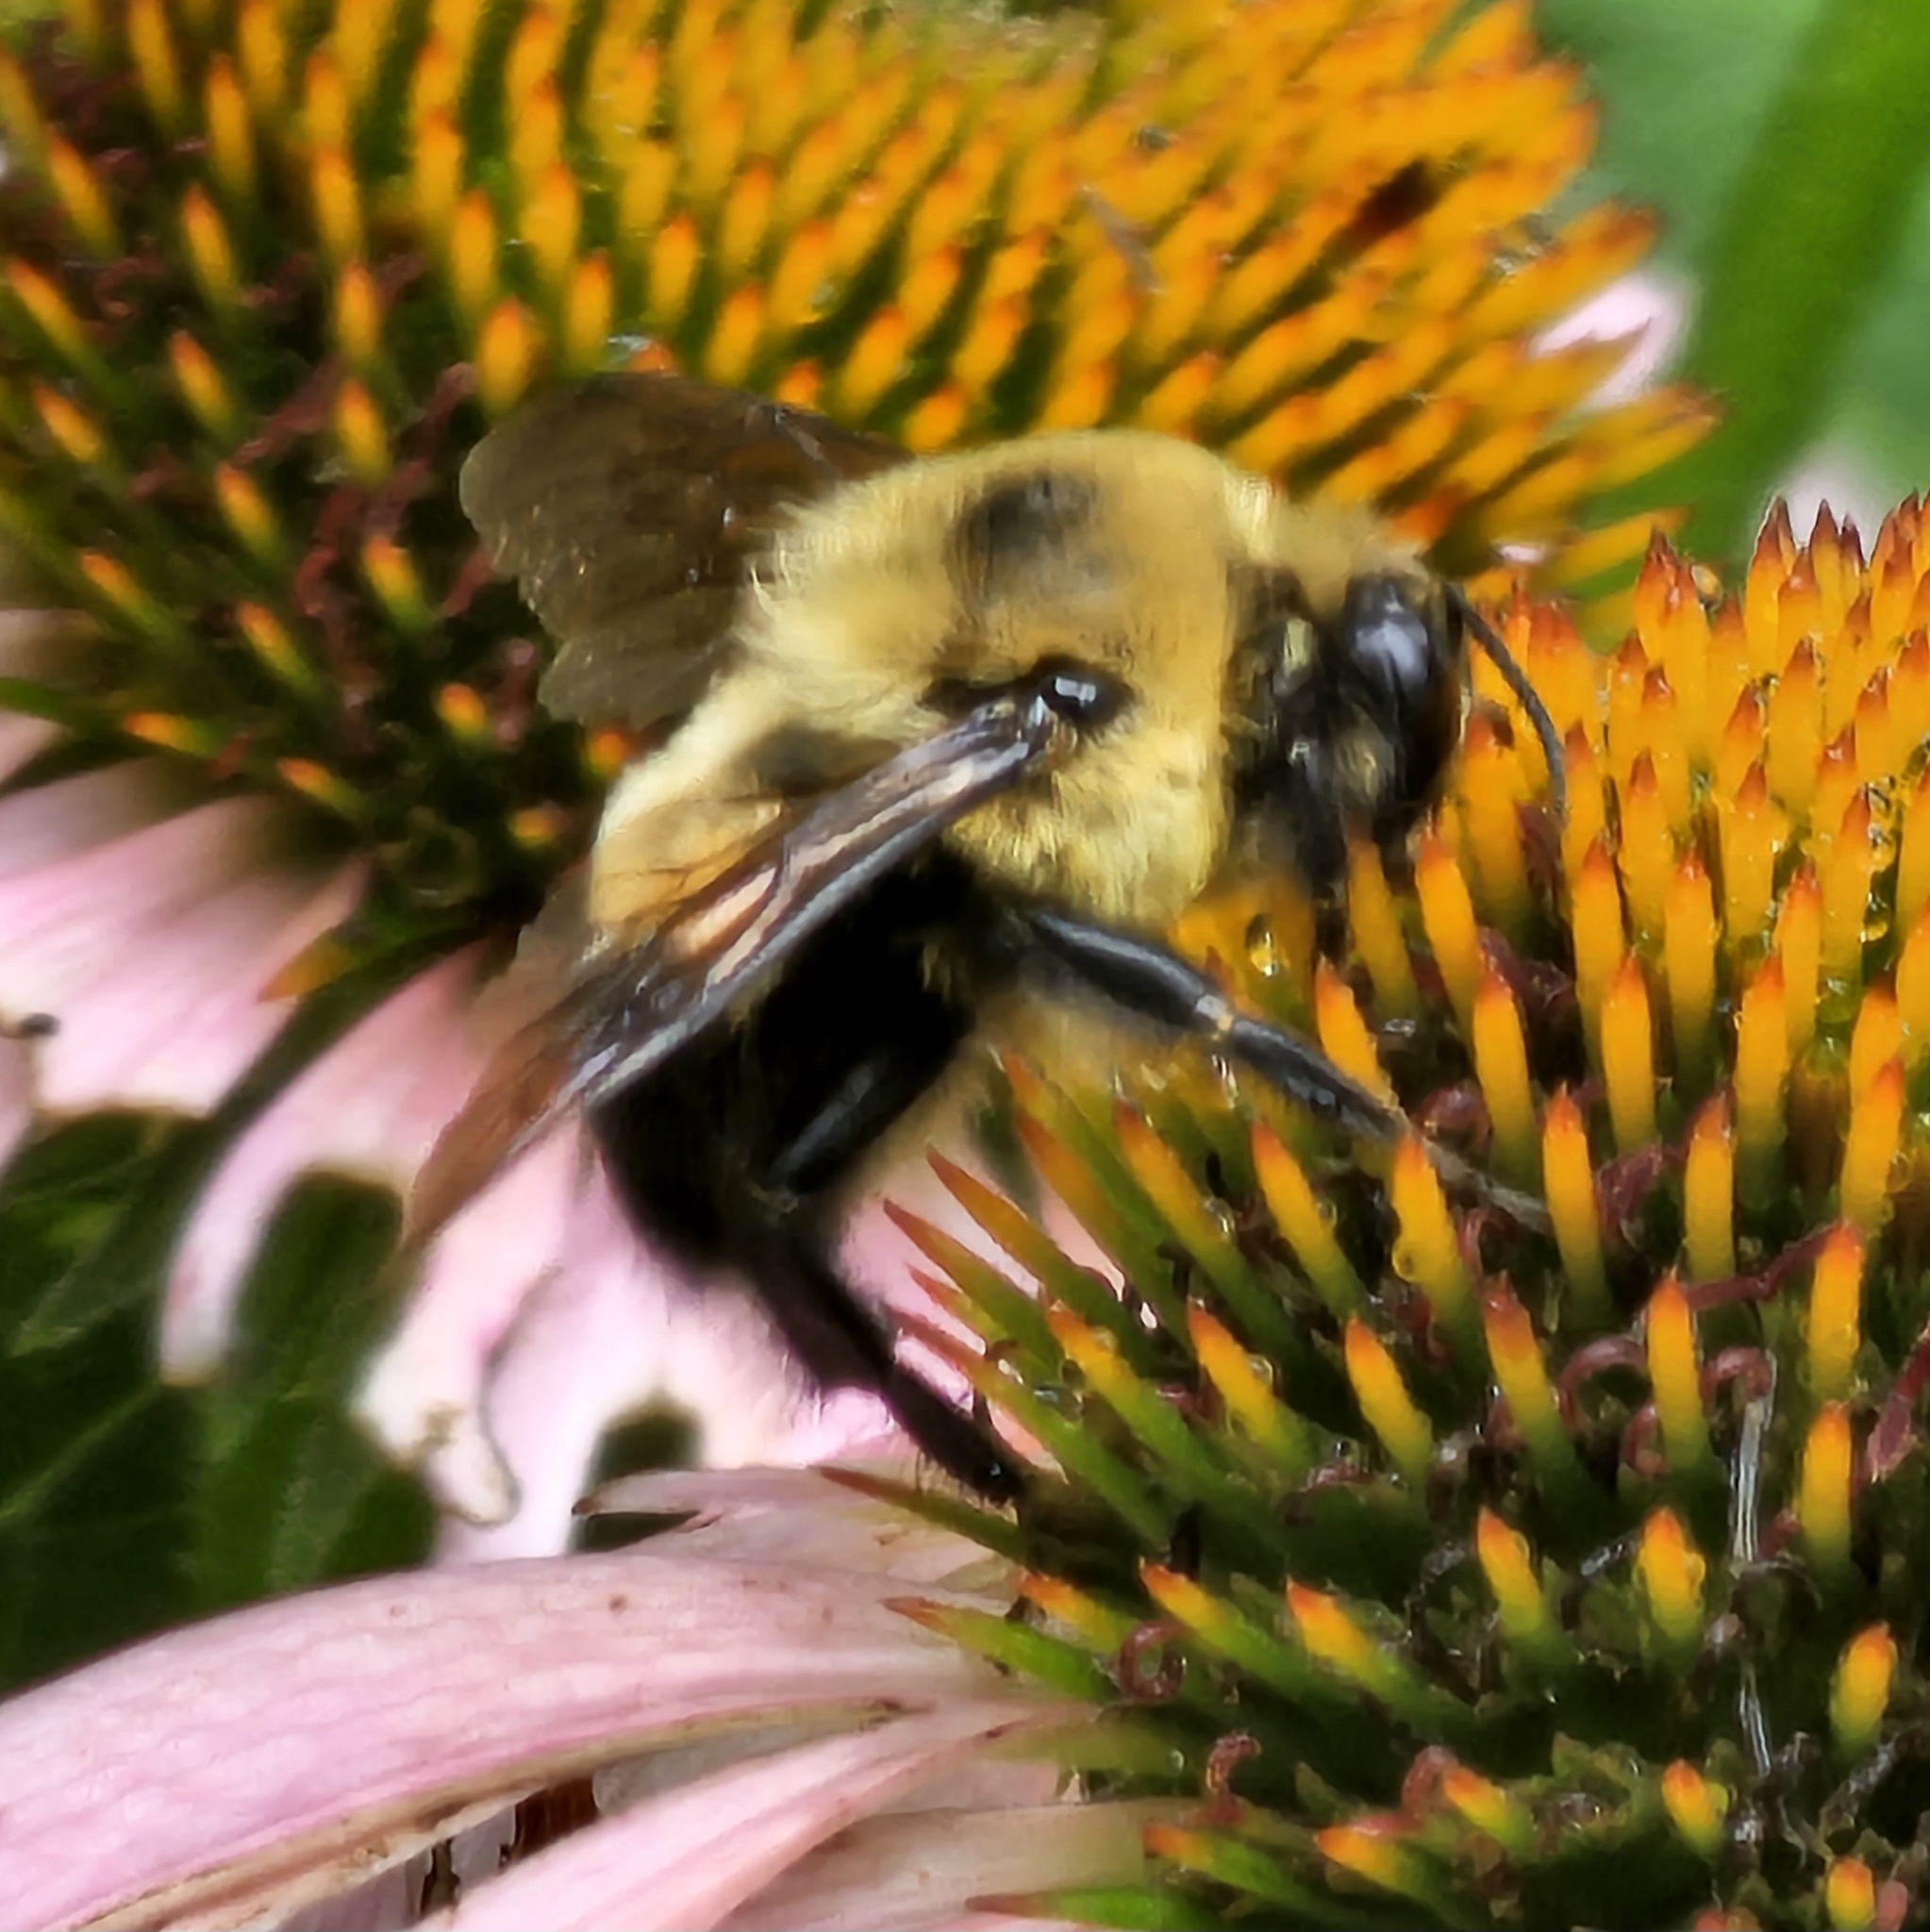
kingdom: Animalia
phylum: Arthropoda
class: Insecta
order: Hymenoptera
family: Apidae
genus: Bombus
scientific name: Bombus griseocollis
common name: Brown-belted bumble bee
